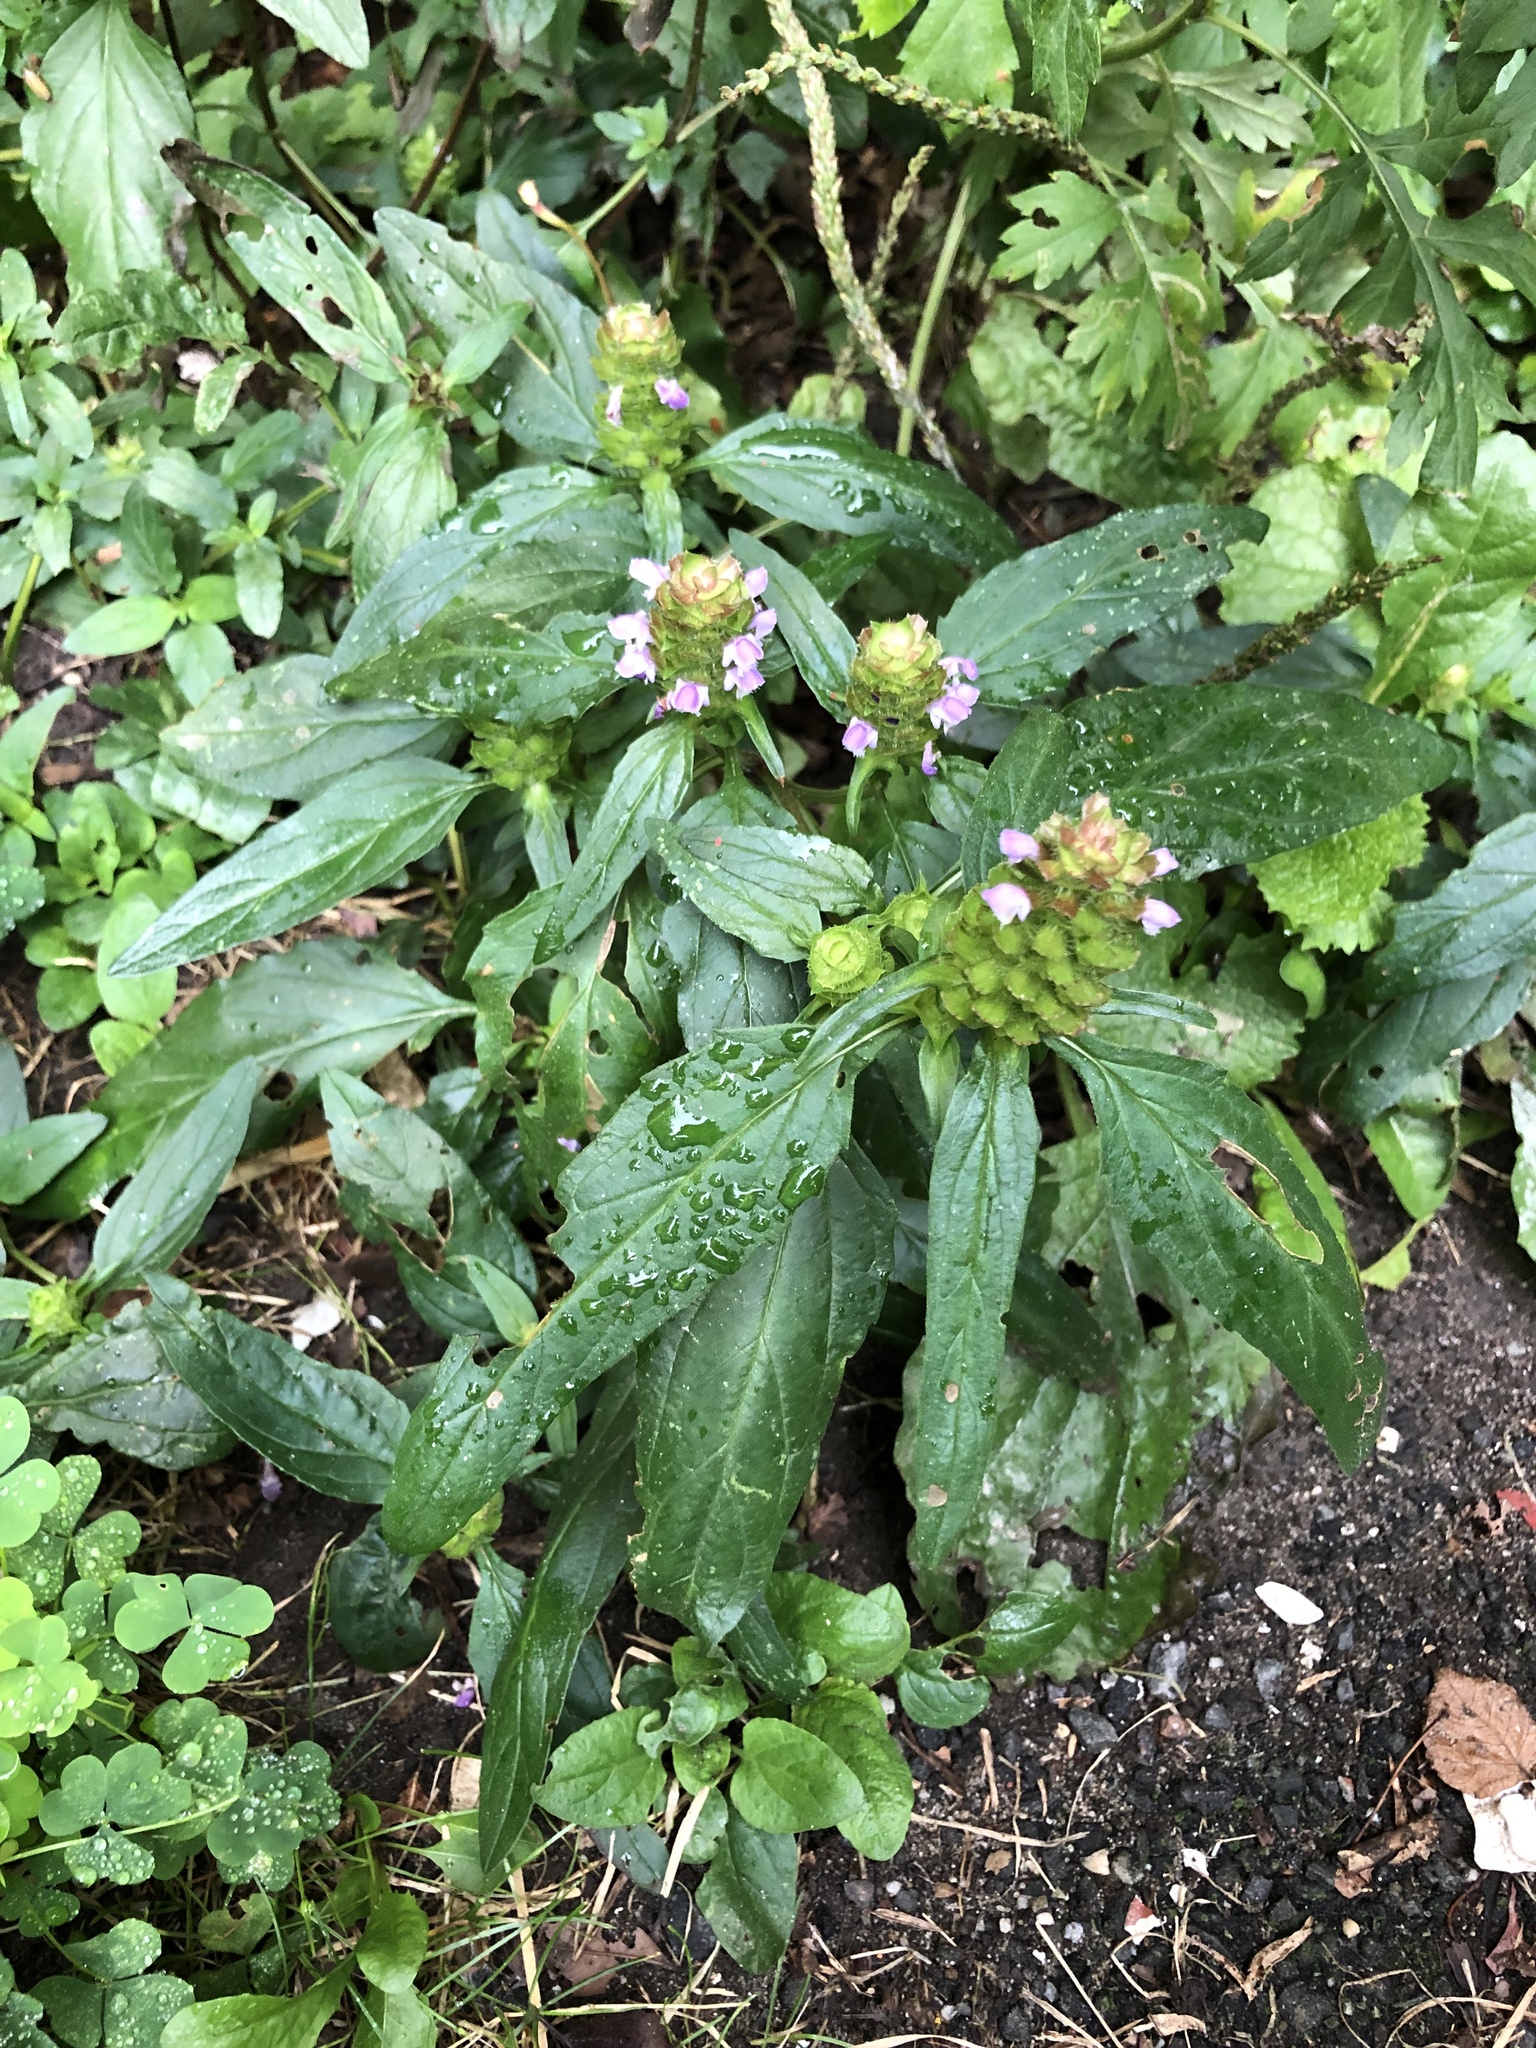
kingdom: Plantae
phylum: Tracheophyta
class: Magnoliopsida
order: Lamiales
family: Lamiaceae
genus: Prunella
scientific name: Prunella vulgaris
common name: Heal-all
